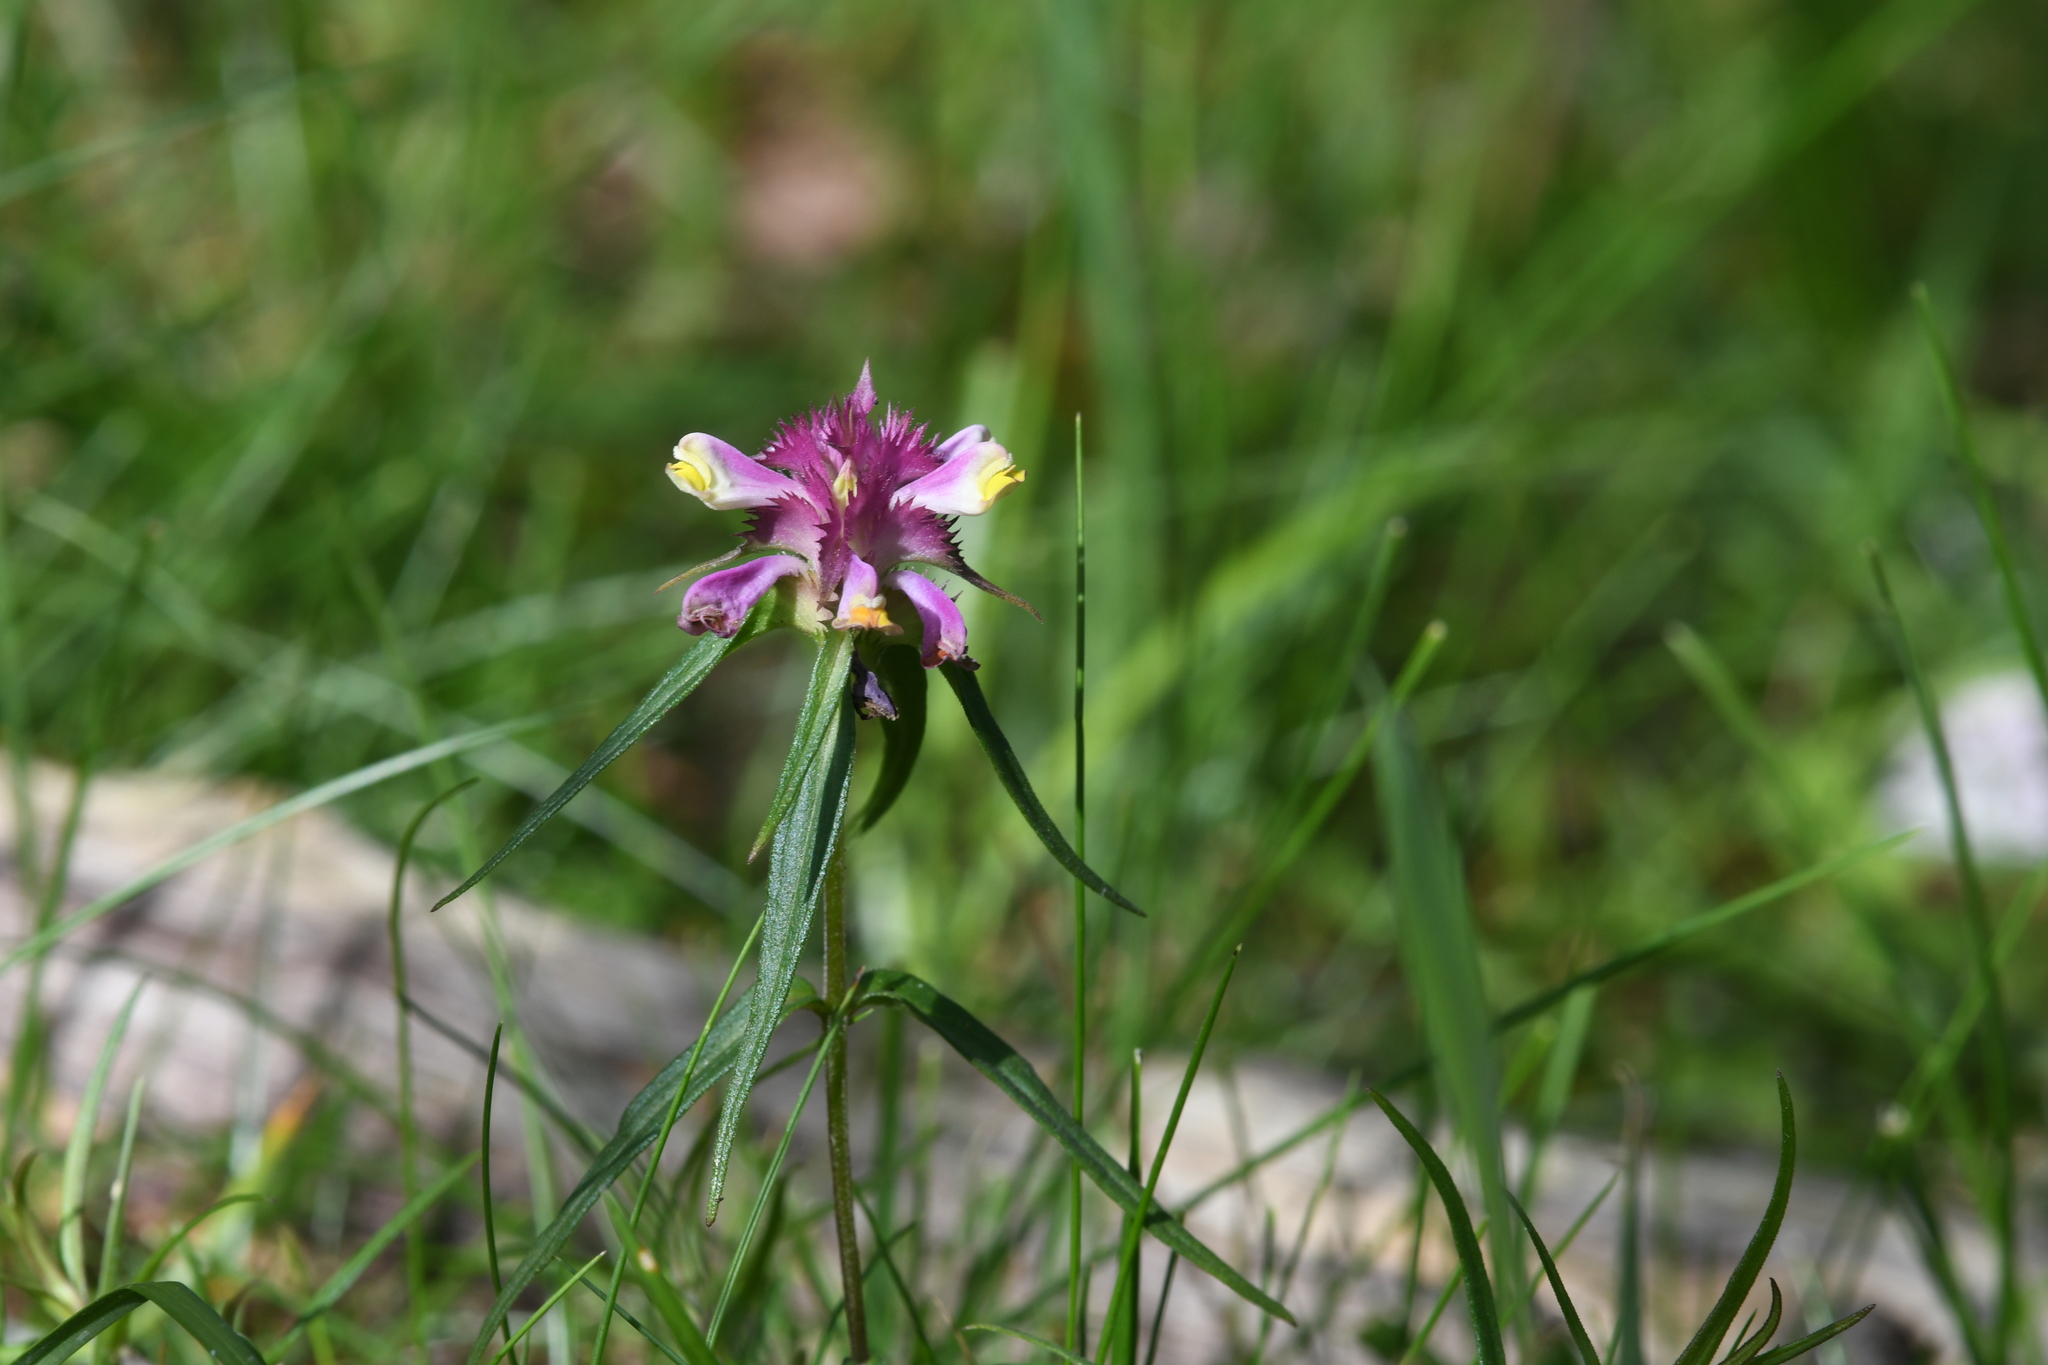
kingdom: Plantae
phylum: Tracheophyta
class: Magnoliopsida
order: Lamiales
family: Orobanchaceae
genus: Melampyrum
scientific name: Melampyrum cristatum
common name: Crested cow-wheat
